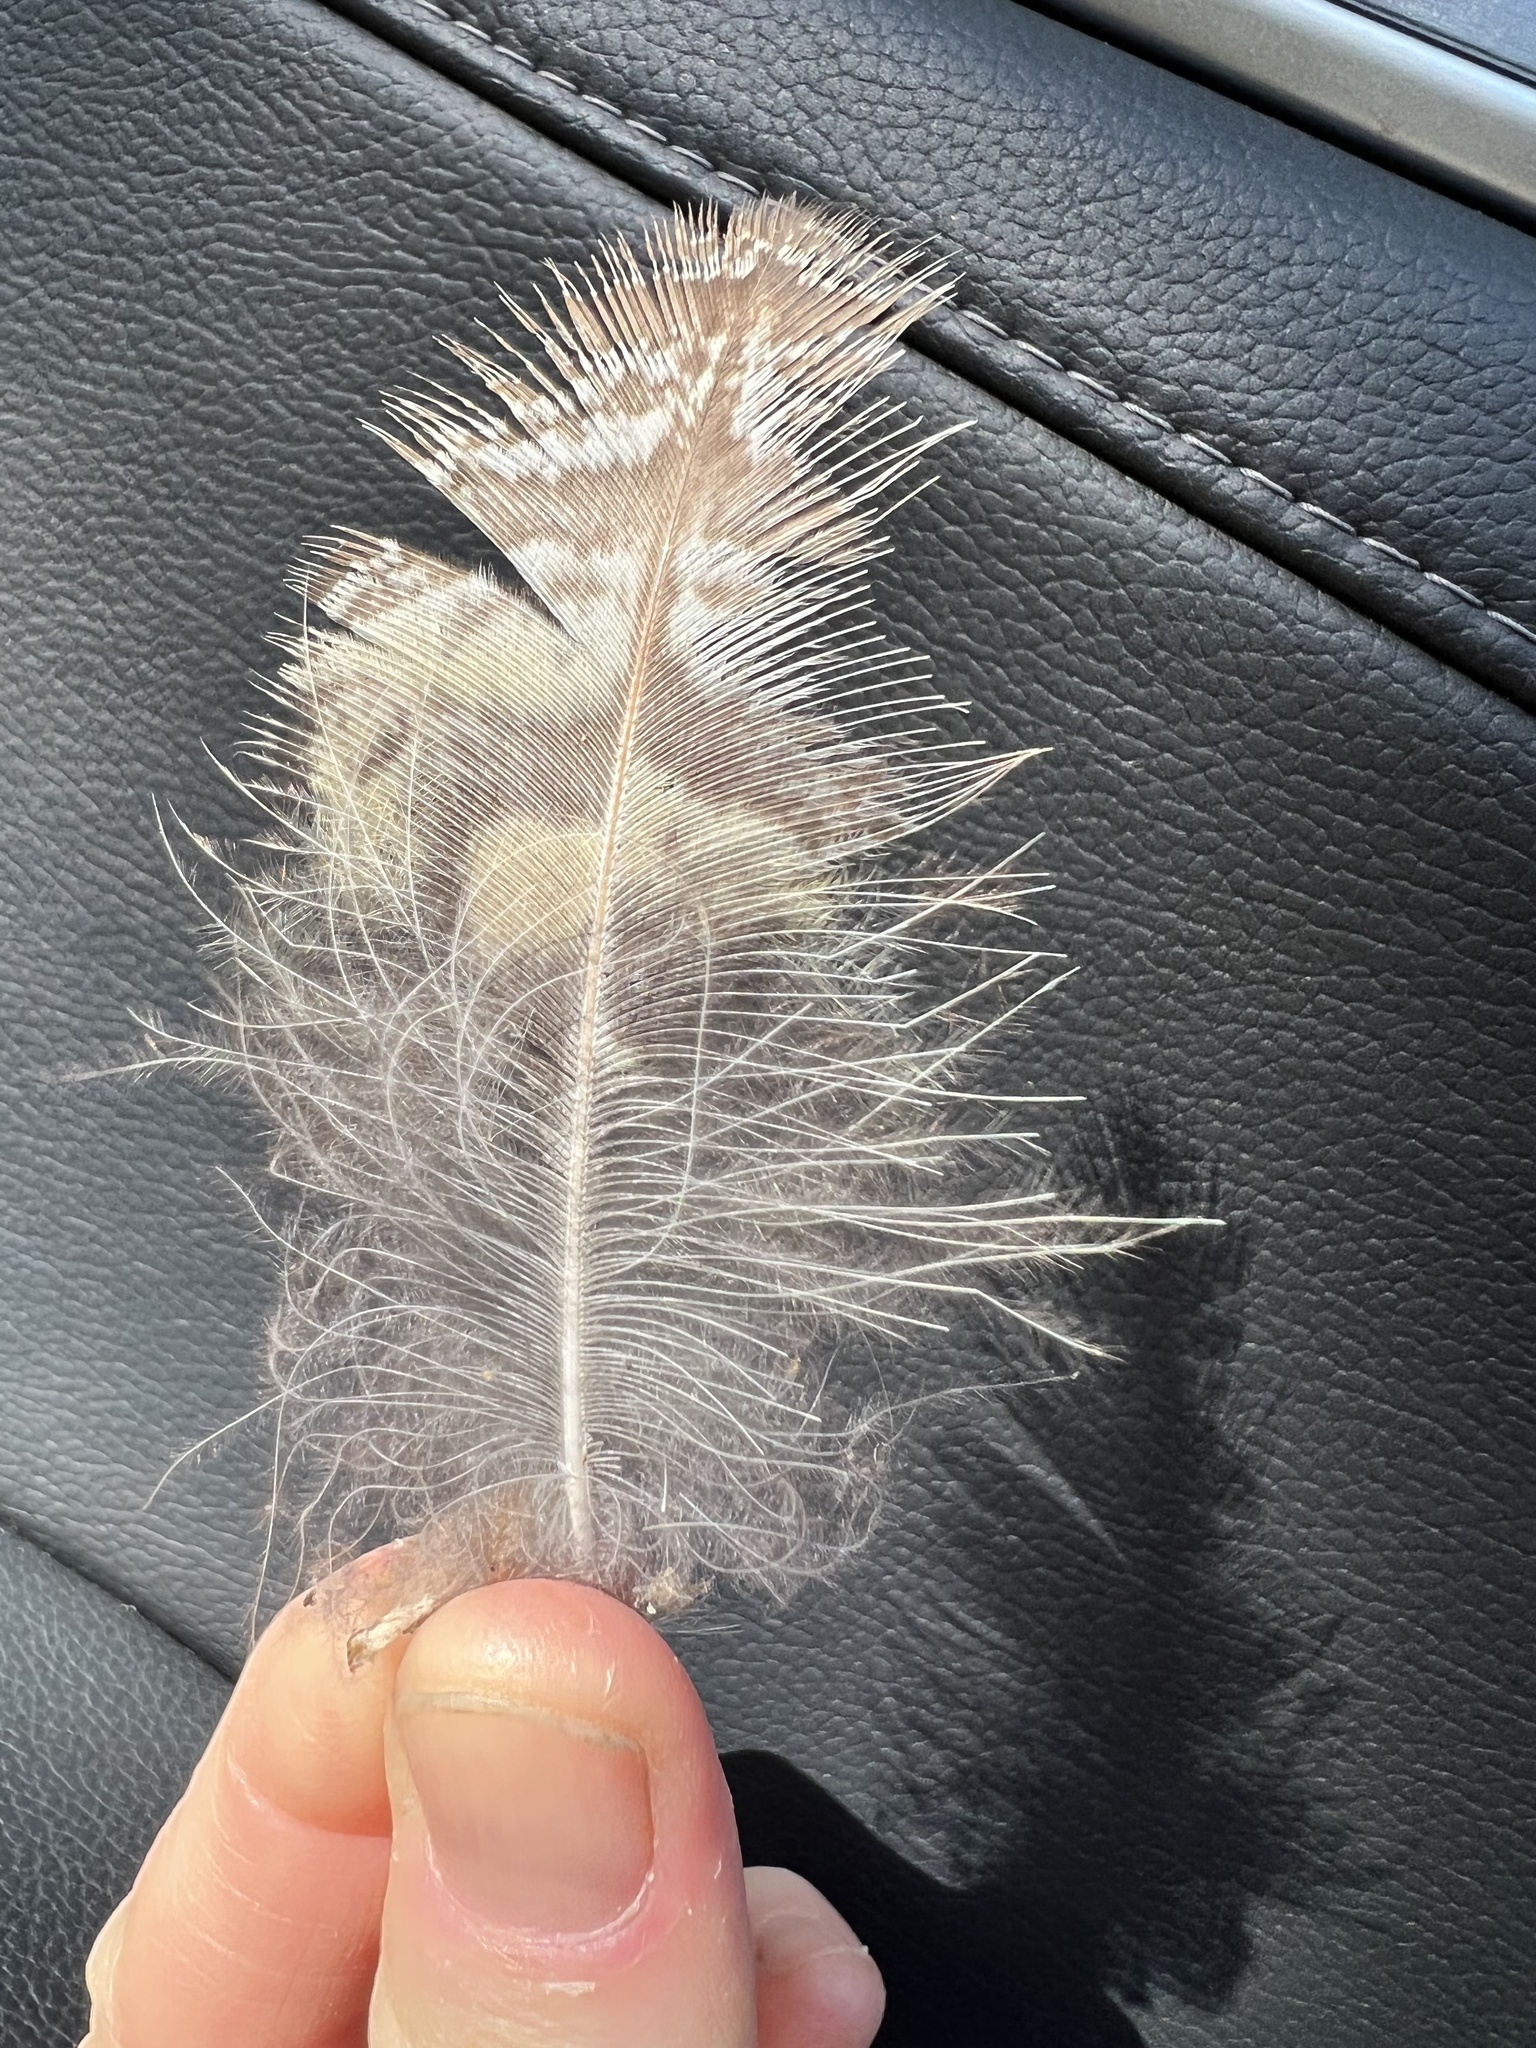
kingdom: Animalia
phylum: Chordata
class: Aves
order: Strigiformes
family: Strigidae
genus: Bubo
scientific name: Bubo virginianus
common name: Great horned owl
